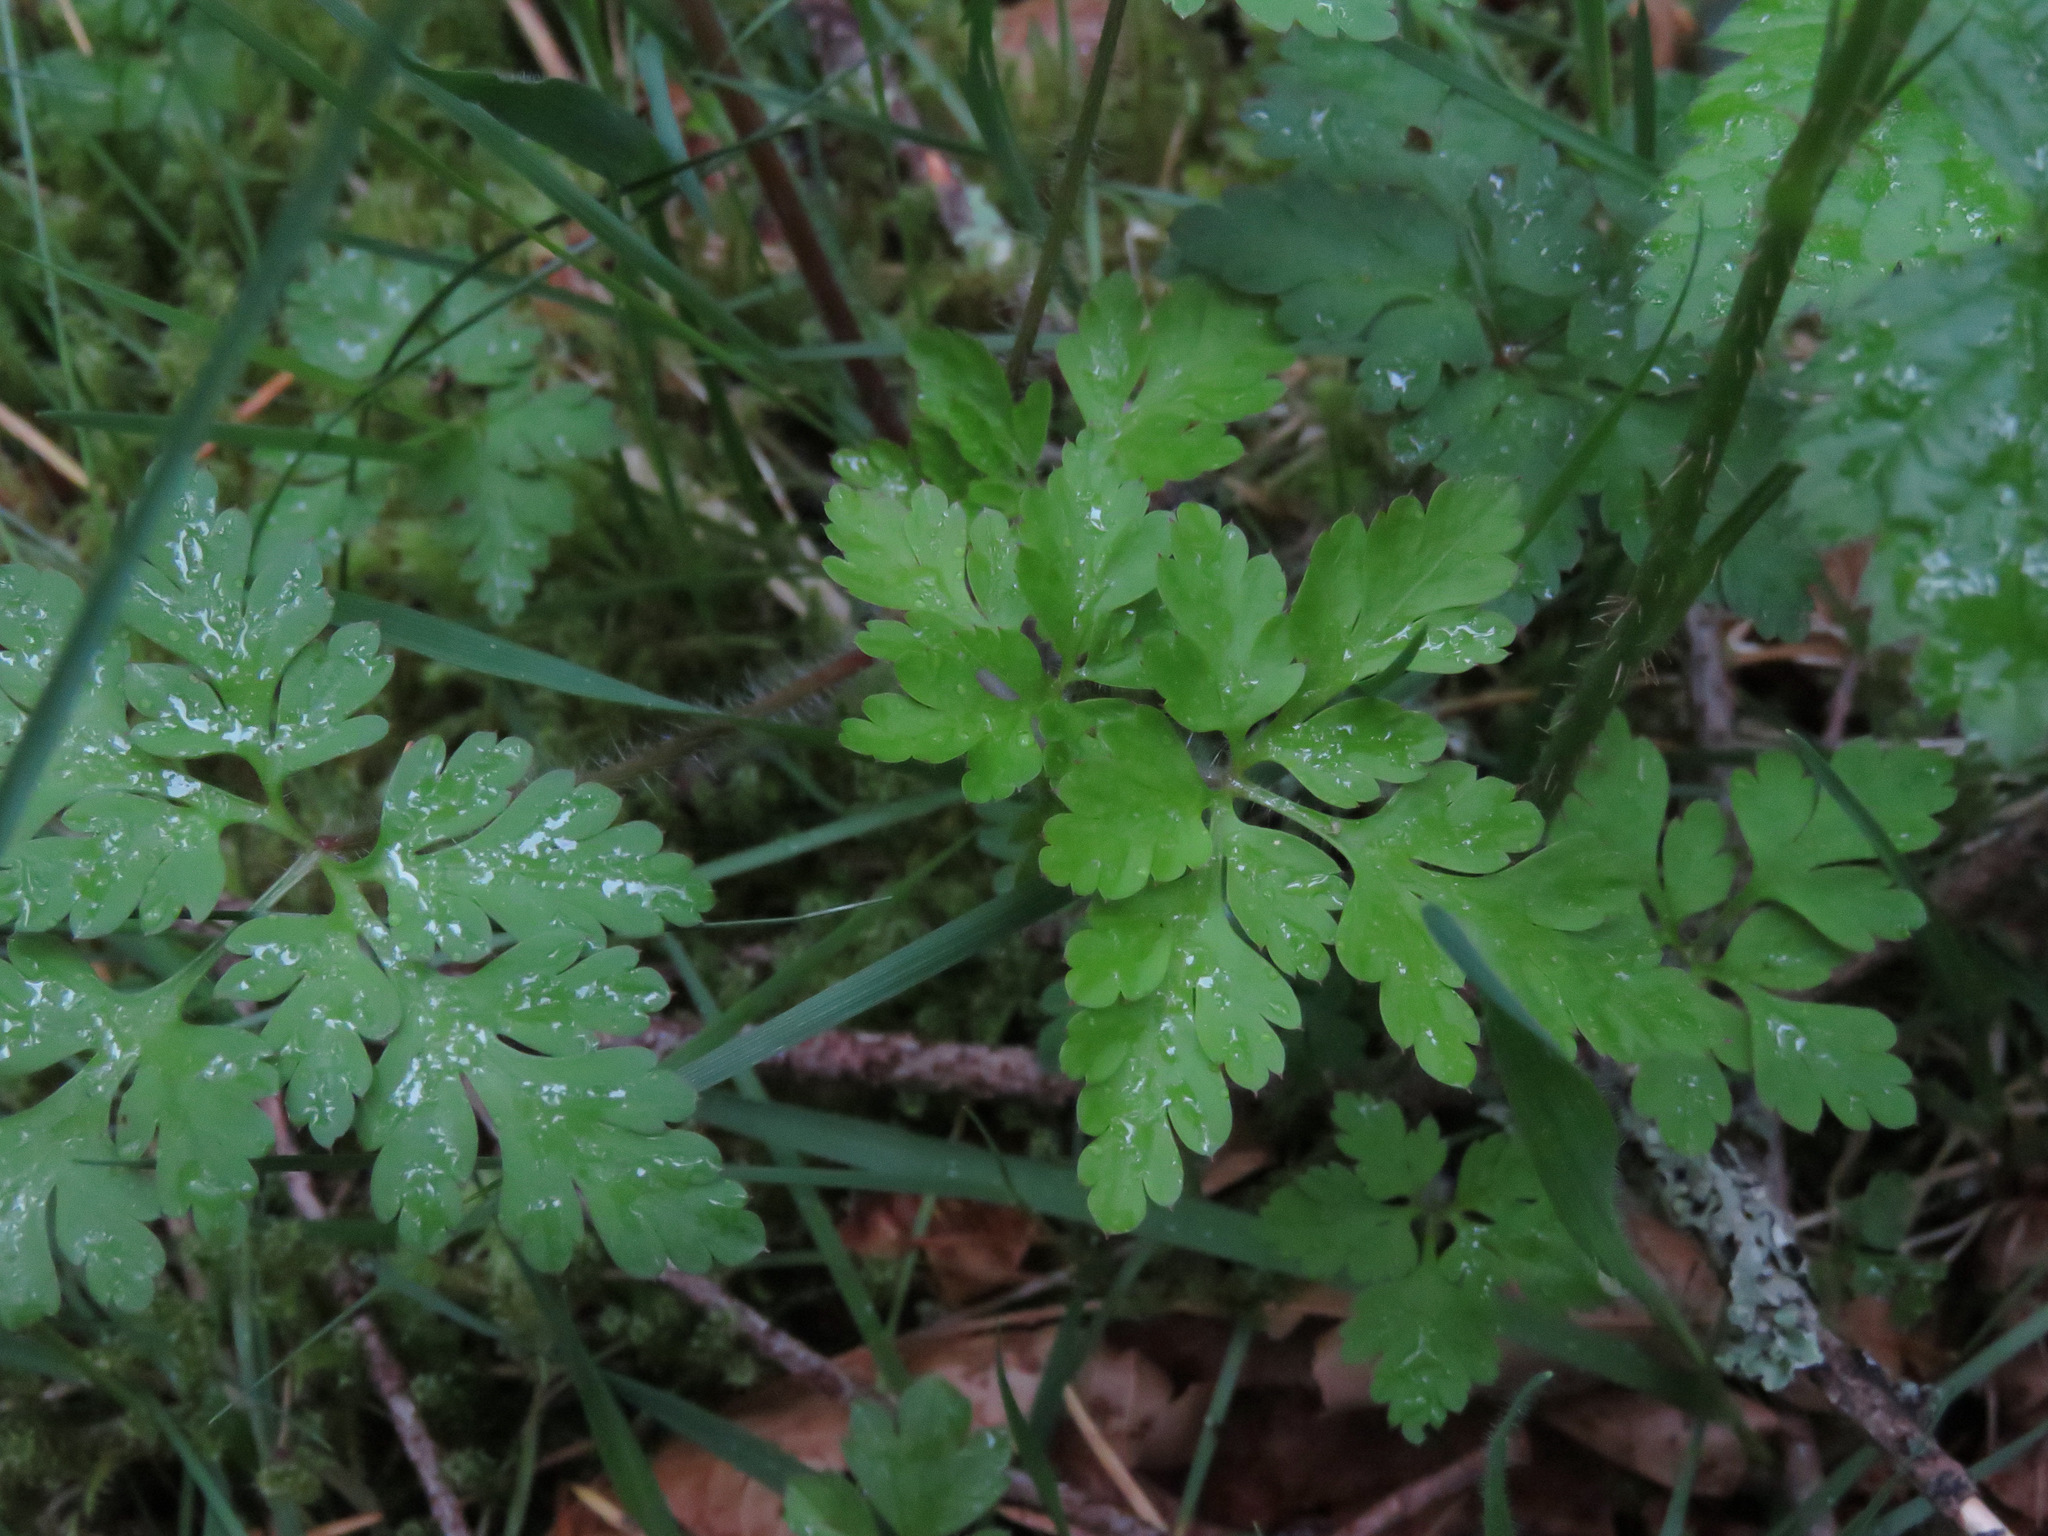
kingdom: Plantae
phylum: Tracheophyta
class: Magnoliopsida
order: Geraniales
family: Geraniaceae
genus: Geranium
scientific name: Geranium robertianum
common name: Herb-robert
